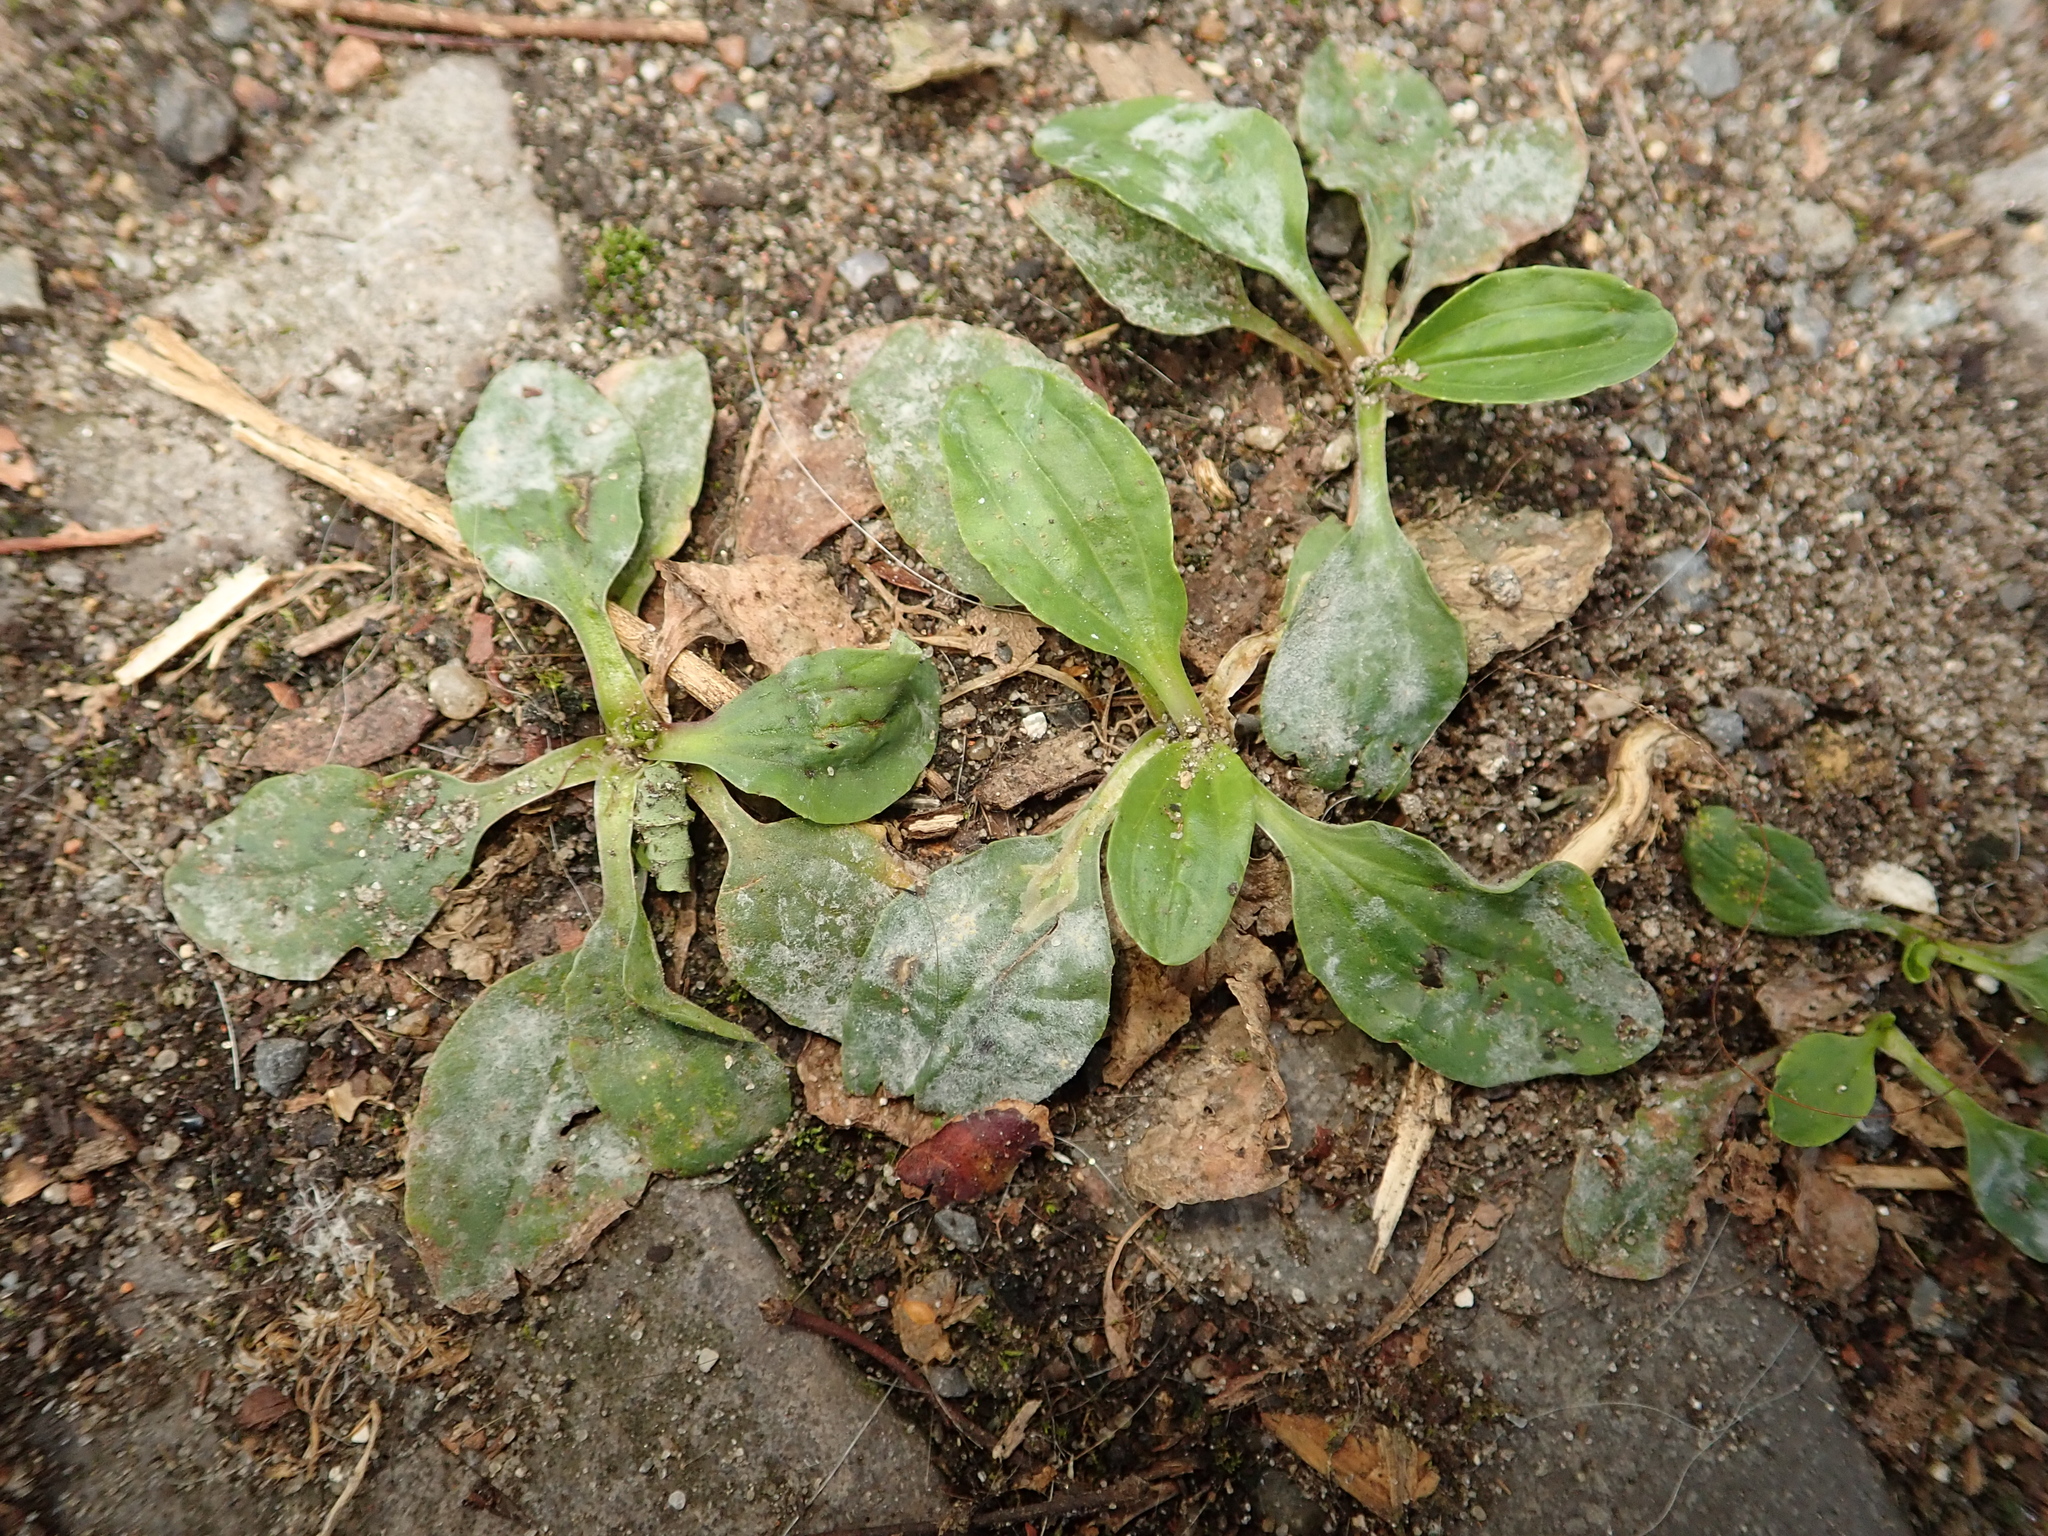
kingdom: Plantae
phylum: Tracheophyta
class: Magnoliopsida
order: Lamiales
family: Plantaginaceae
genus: Plantago
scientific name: Plantago major
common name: Common plantain
